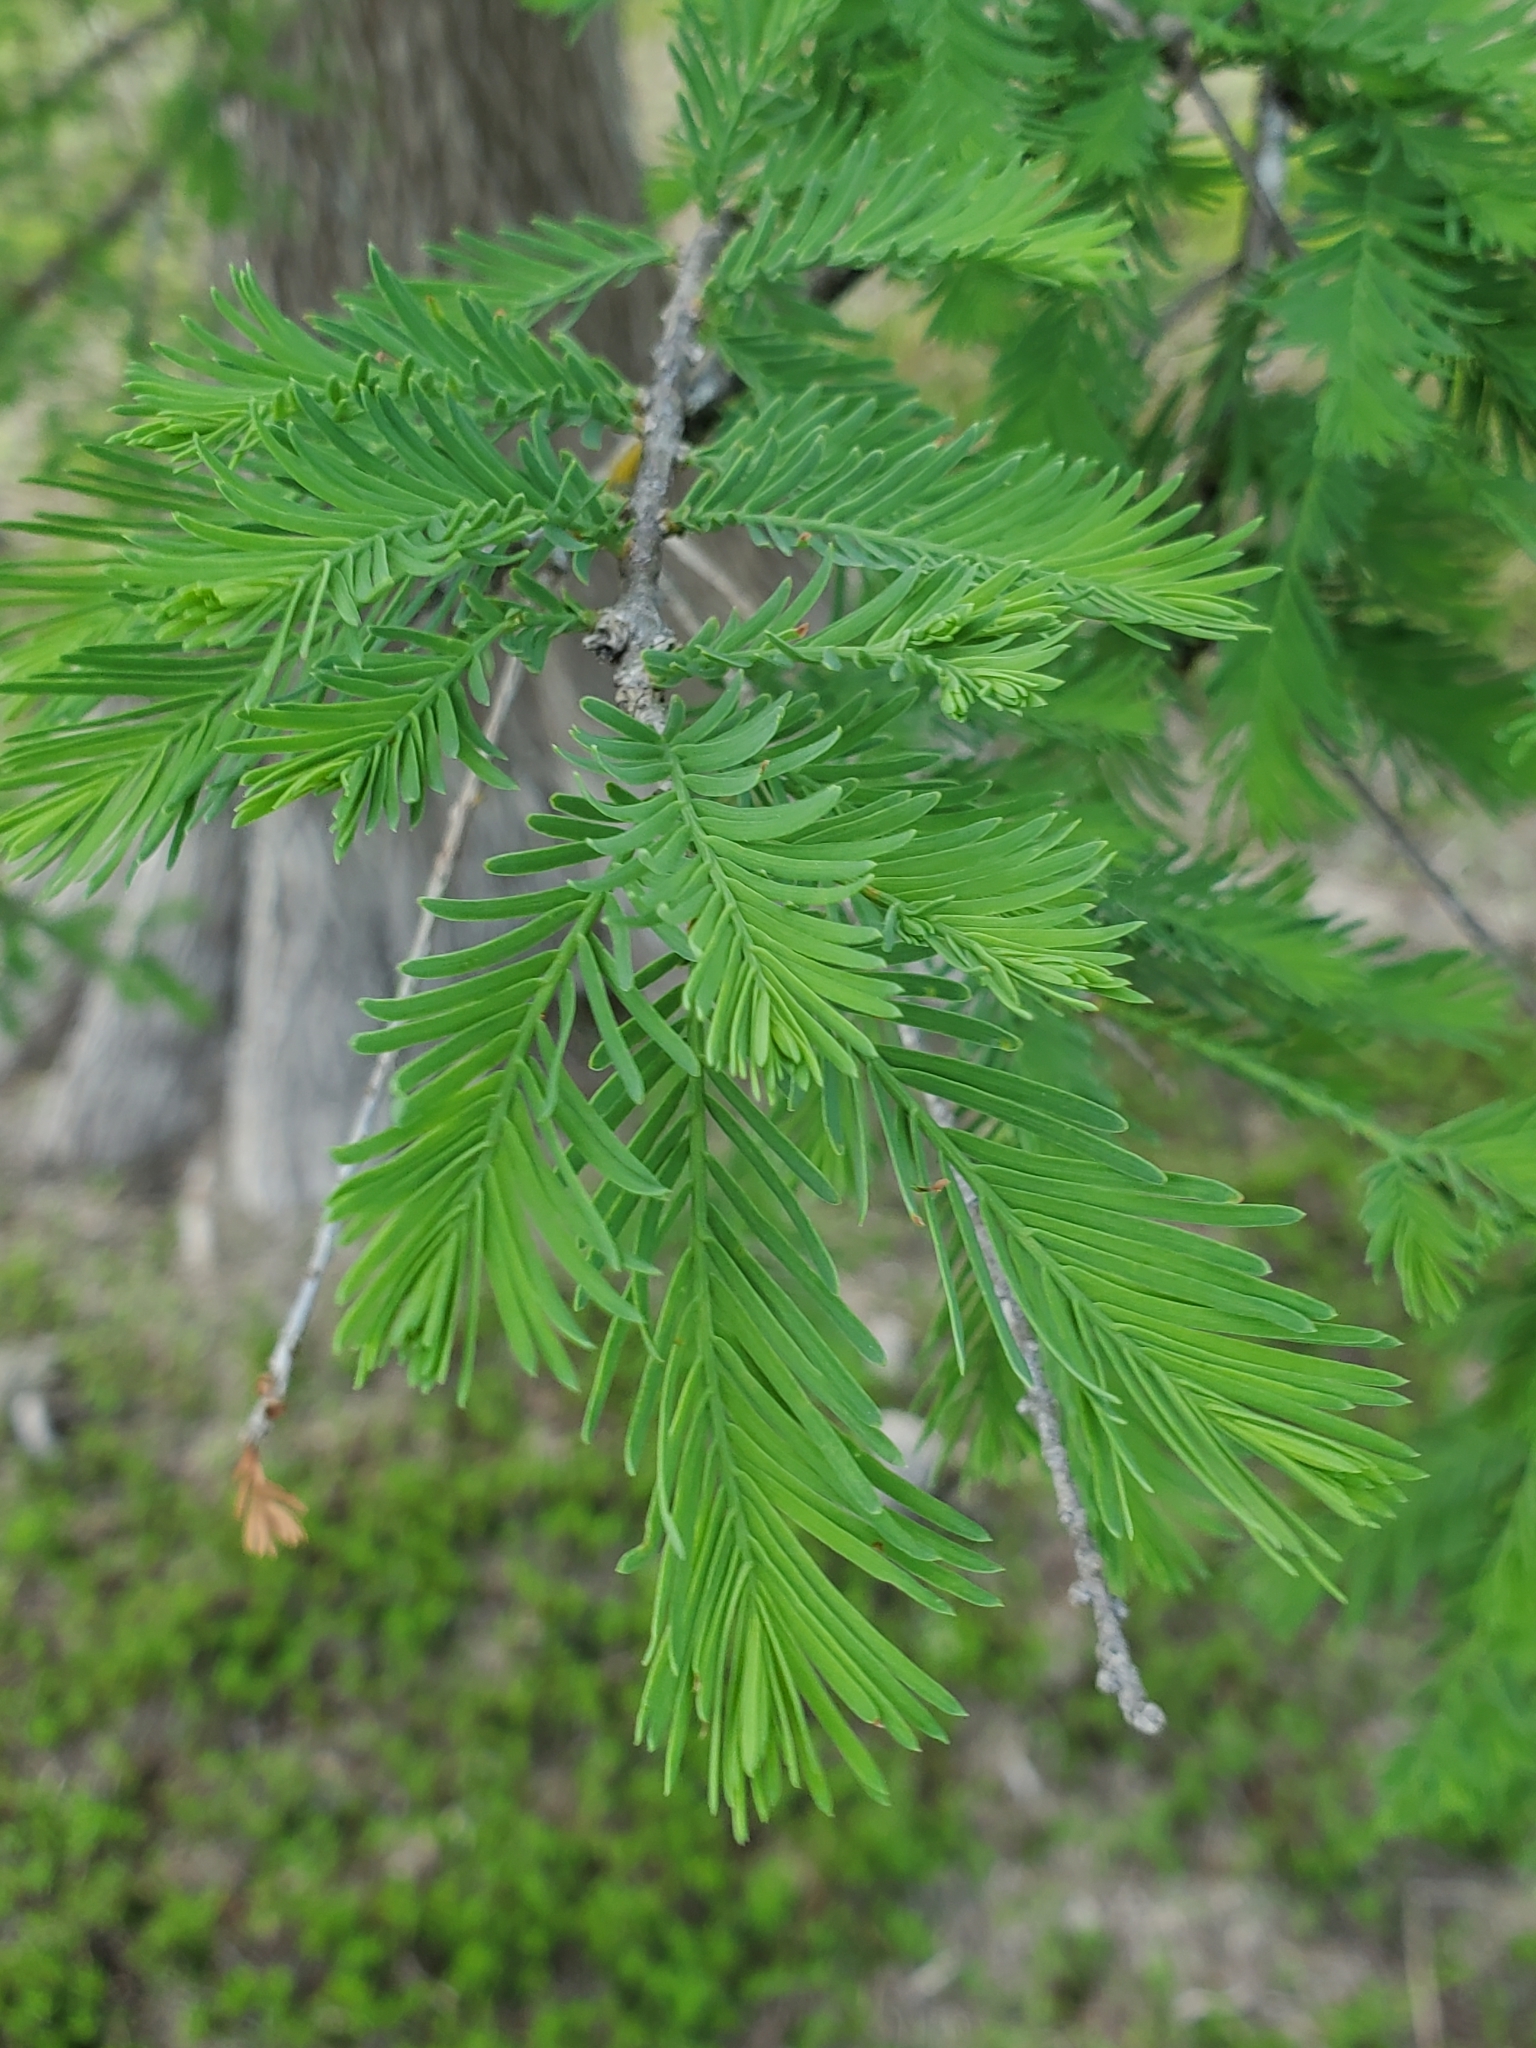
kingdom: Plantae
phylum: Tracheophyta
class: Pinopsida
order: Pinales
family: Cupressaceae
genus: Taxodium
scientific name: Taxodium distichum
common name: Bald cypress
